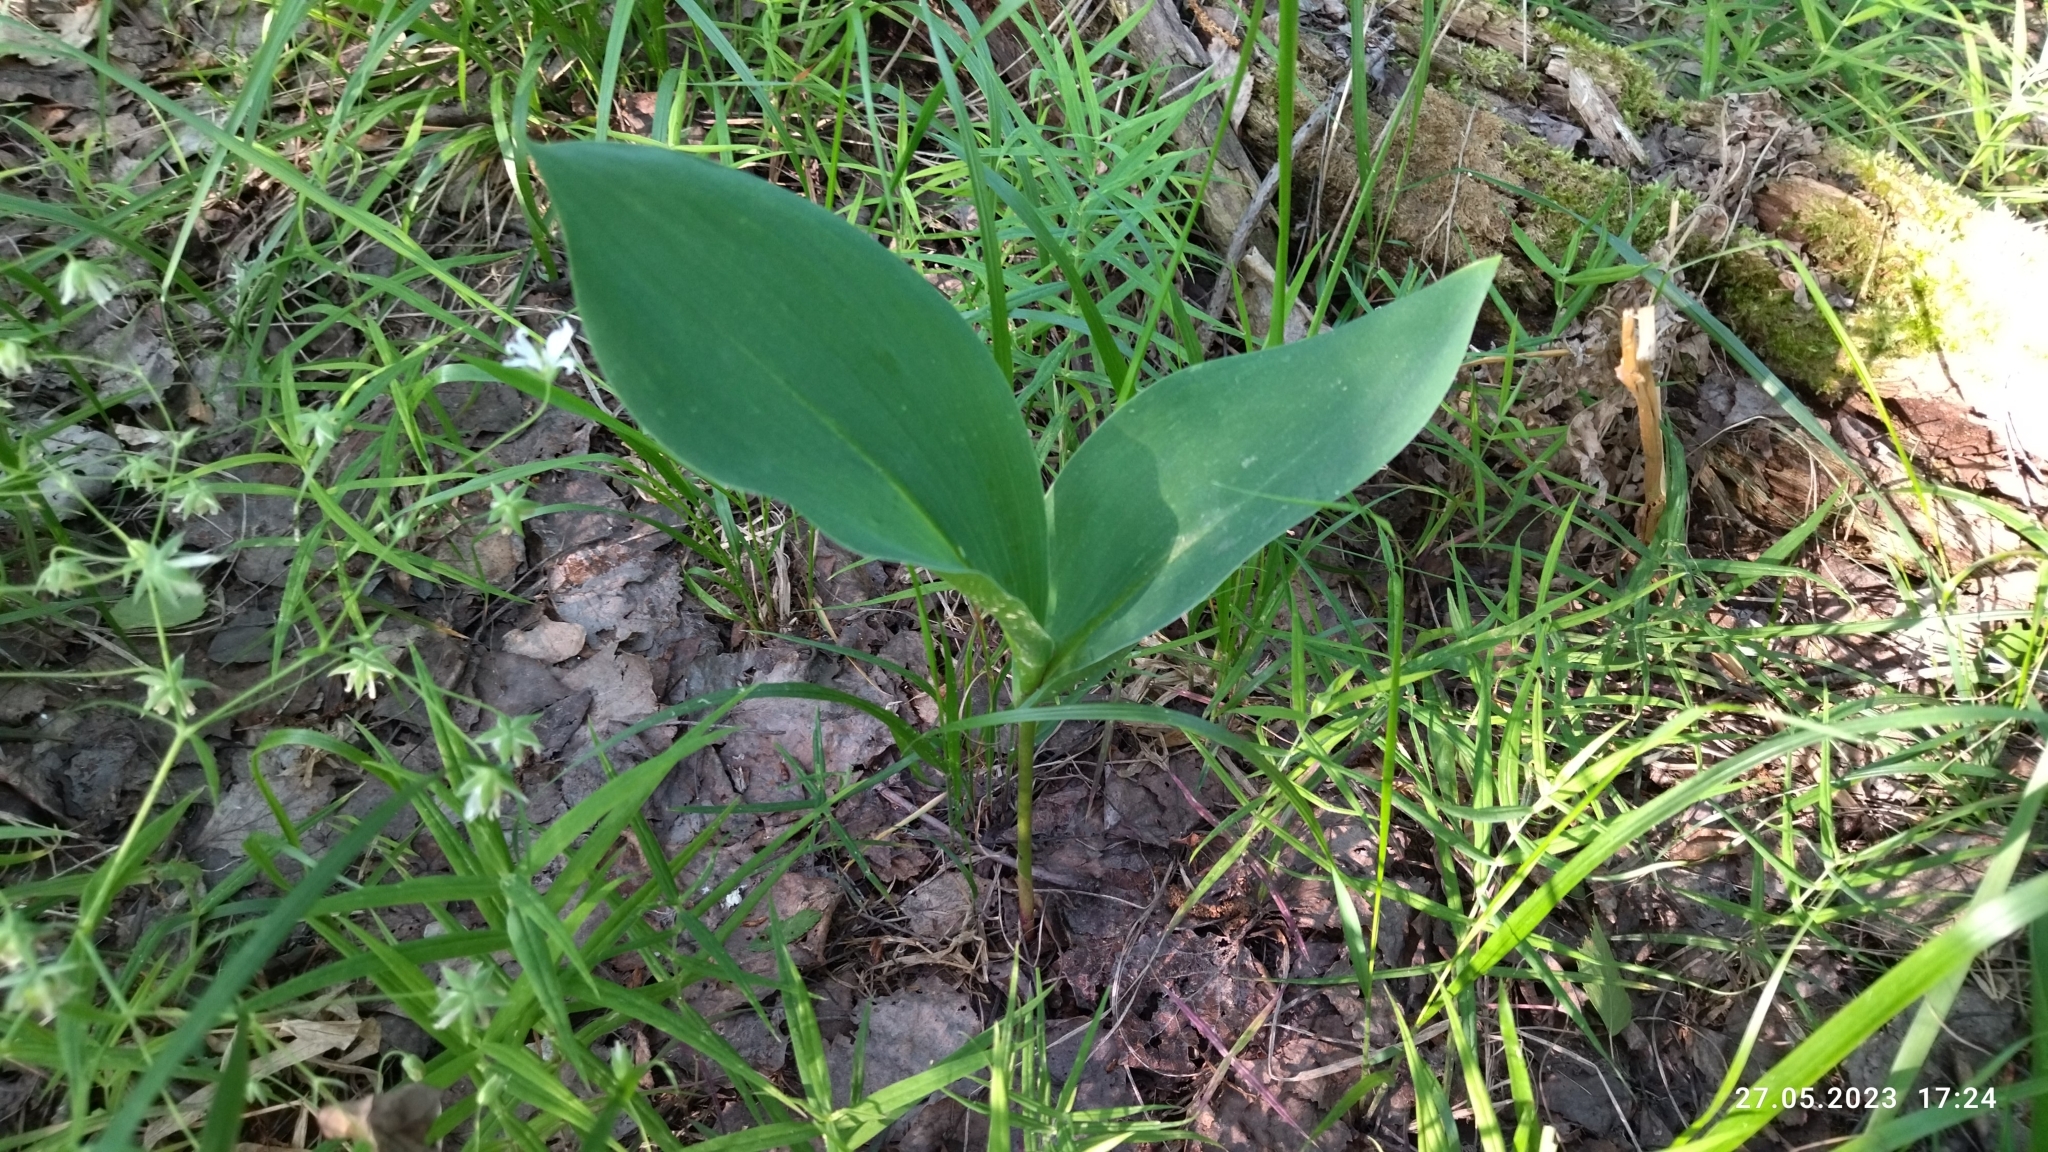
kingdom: Plantae
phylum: Tracheophyta
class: Liliopsida
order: Asparagales
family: Asparagaceae
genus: Convallaria
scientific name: Convallaria majalis
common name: Lily-of-the-valley
